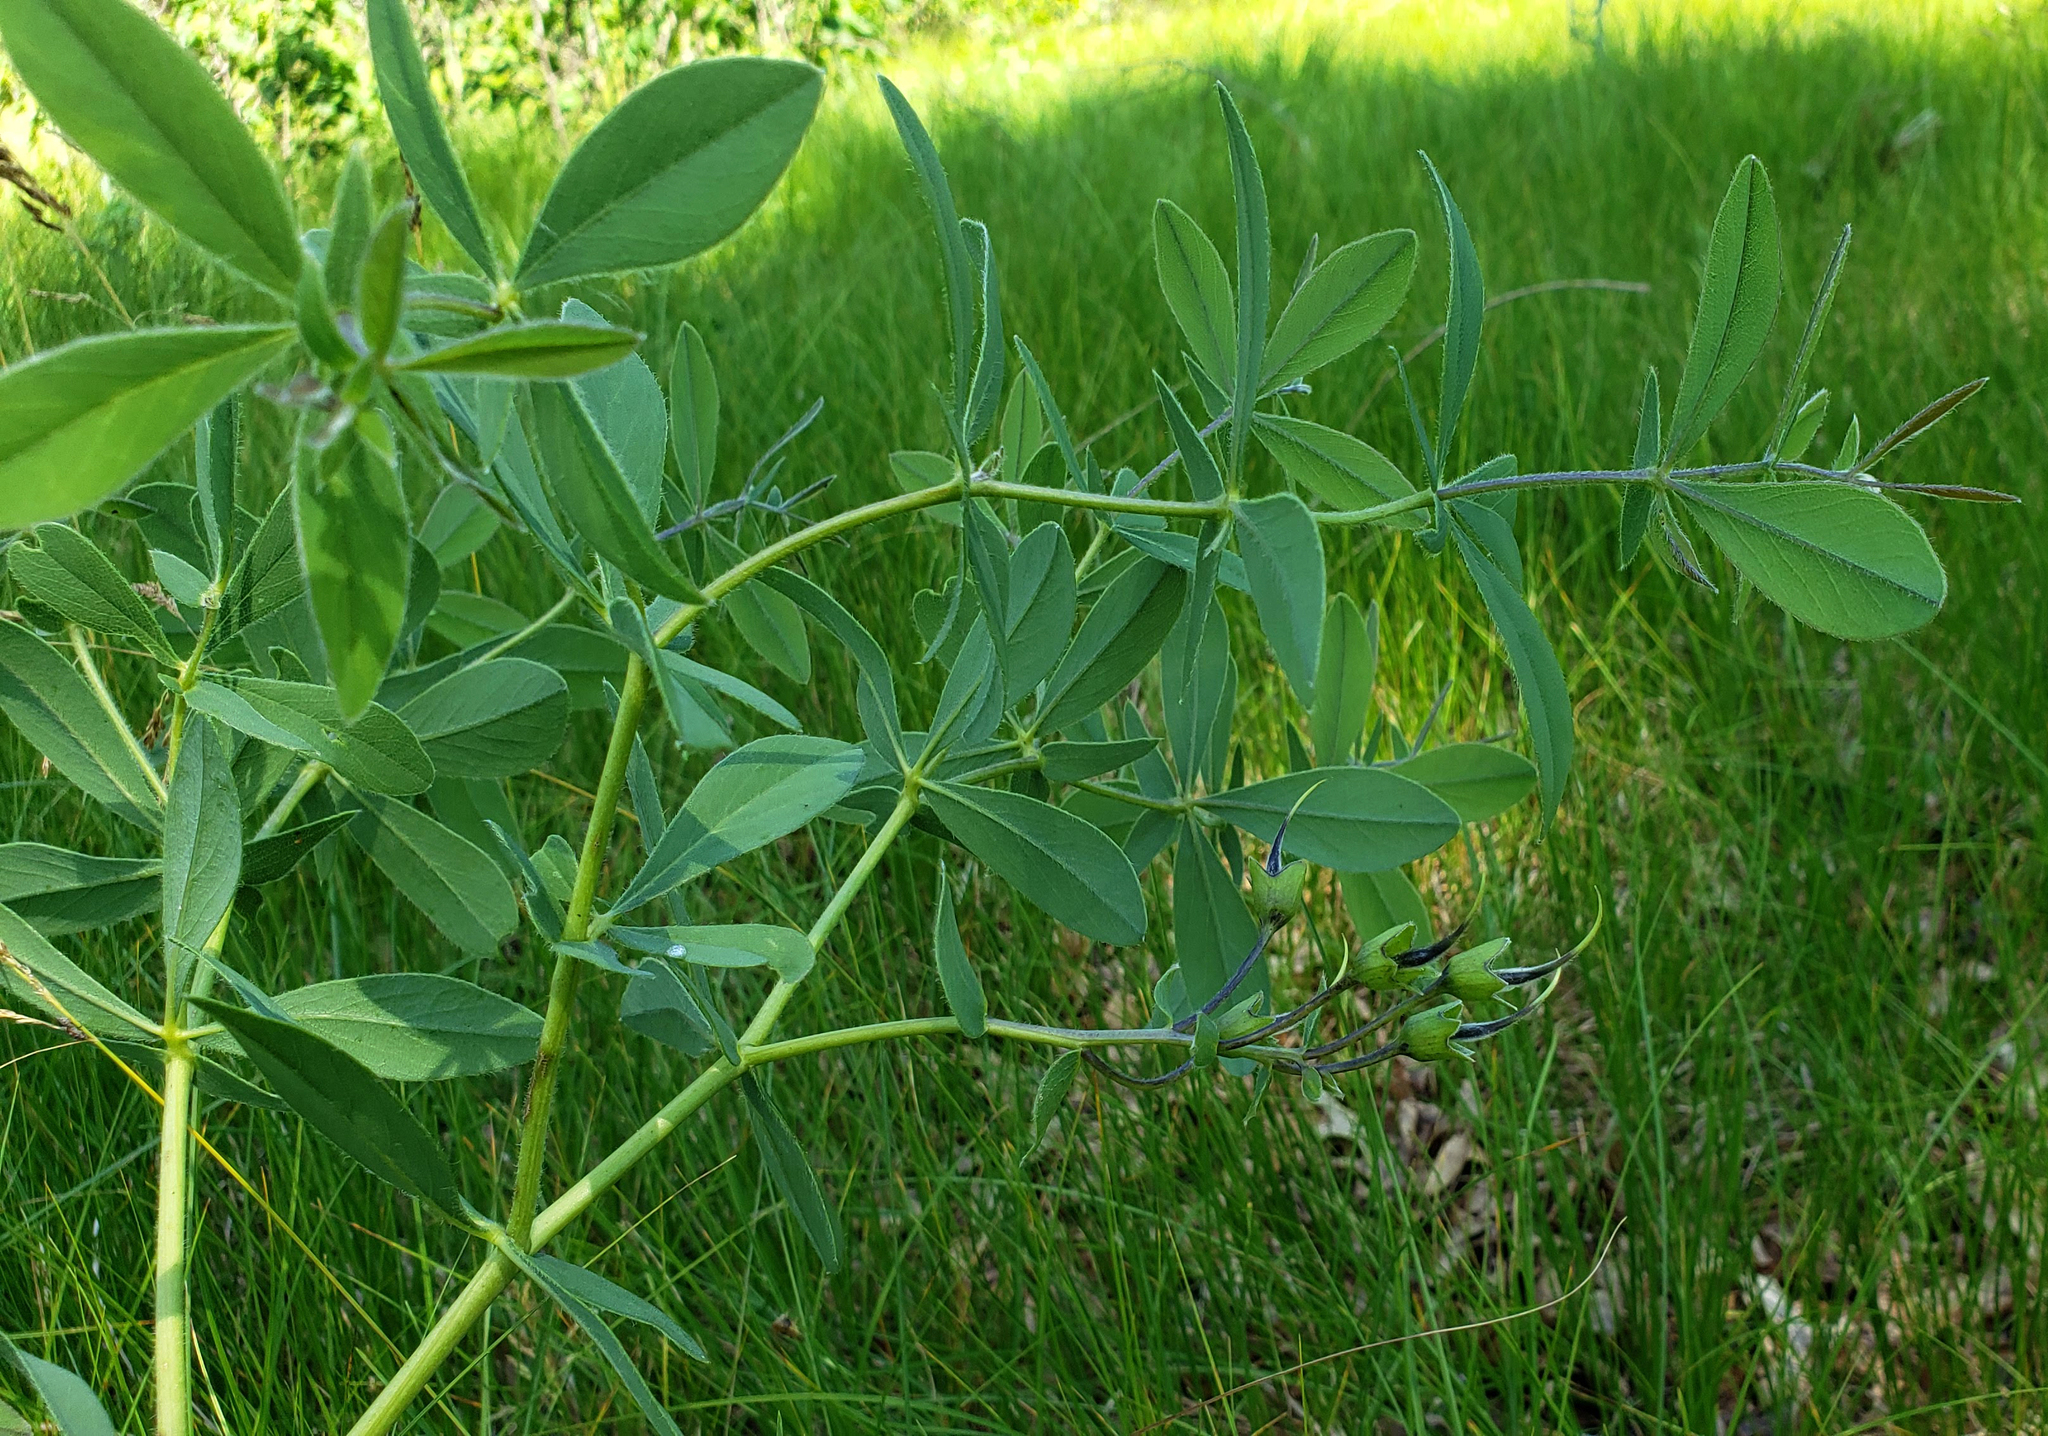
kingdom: Plantae
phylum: Tracheophyta
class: Magnoliopsida
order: Fabales
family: Fabaceae
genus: Baptisia
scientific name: Baptisia bracteata
